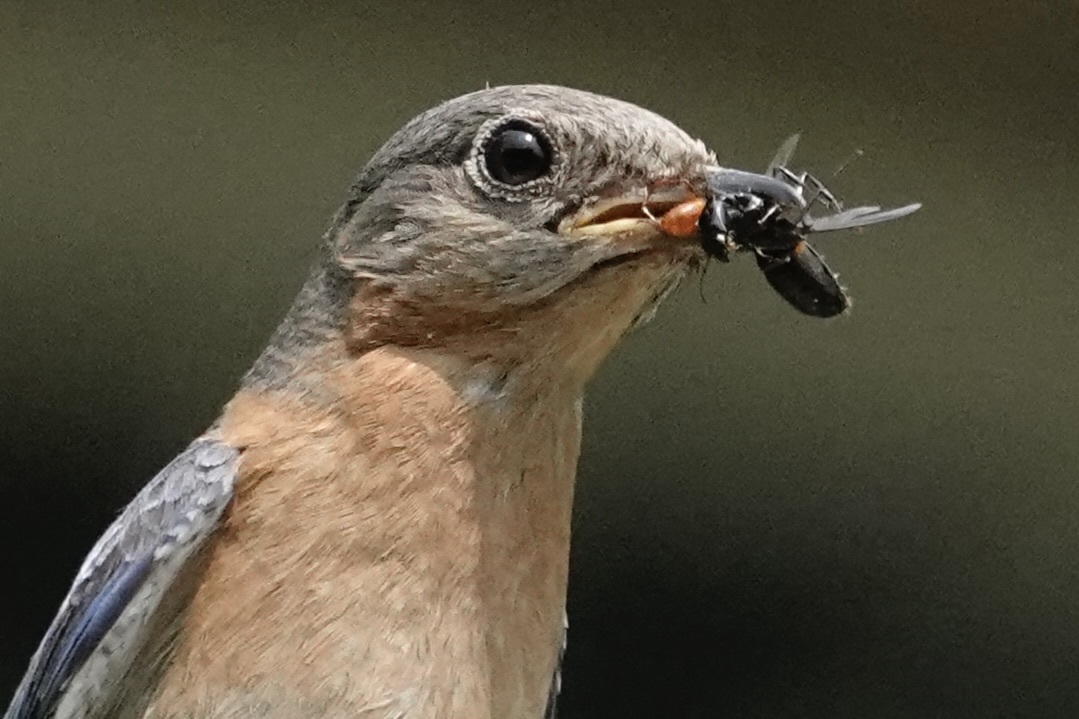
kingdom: Animalia
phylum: Chordata
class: Aves
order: Passeriformes
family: Turdidae
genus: Sialia
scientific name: Sialia sialis
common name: Eastern bluebird
